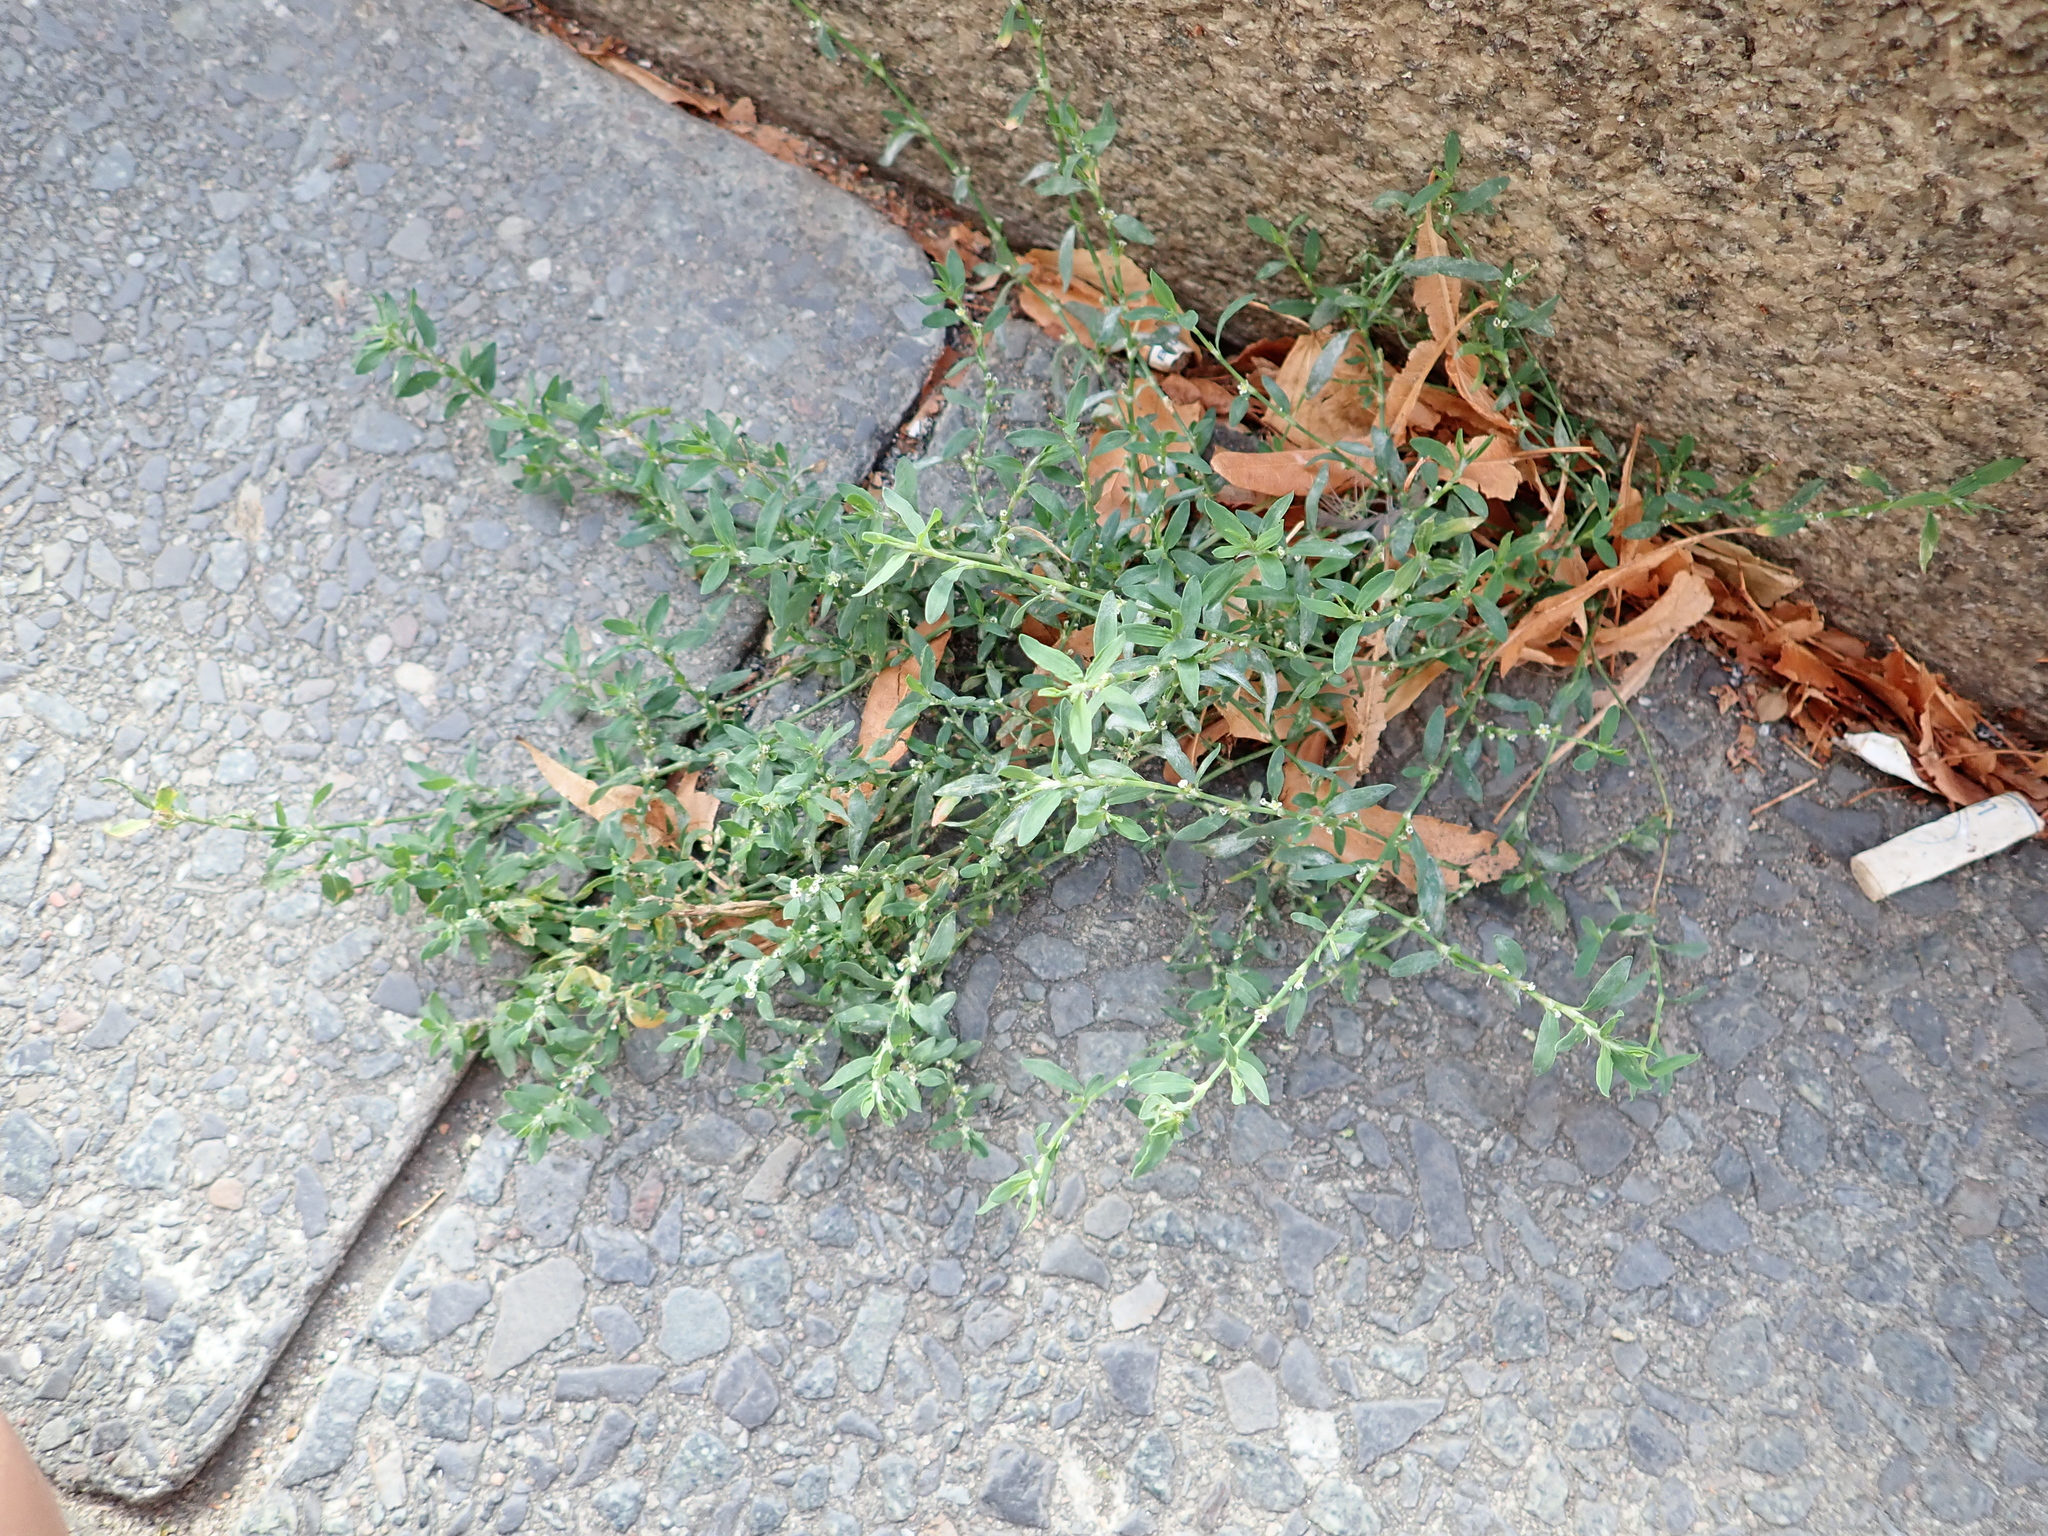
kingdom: Plantae
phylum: Tracheophyta
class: Magnoliopsida
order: Caryophyllales
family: Polygonaceae
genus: Polygonum
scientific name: Polygonum aviculare
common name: Prostrate knotweed
